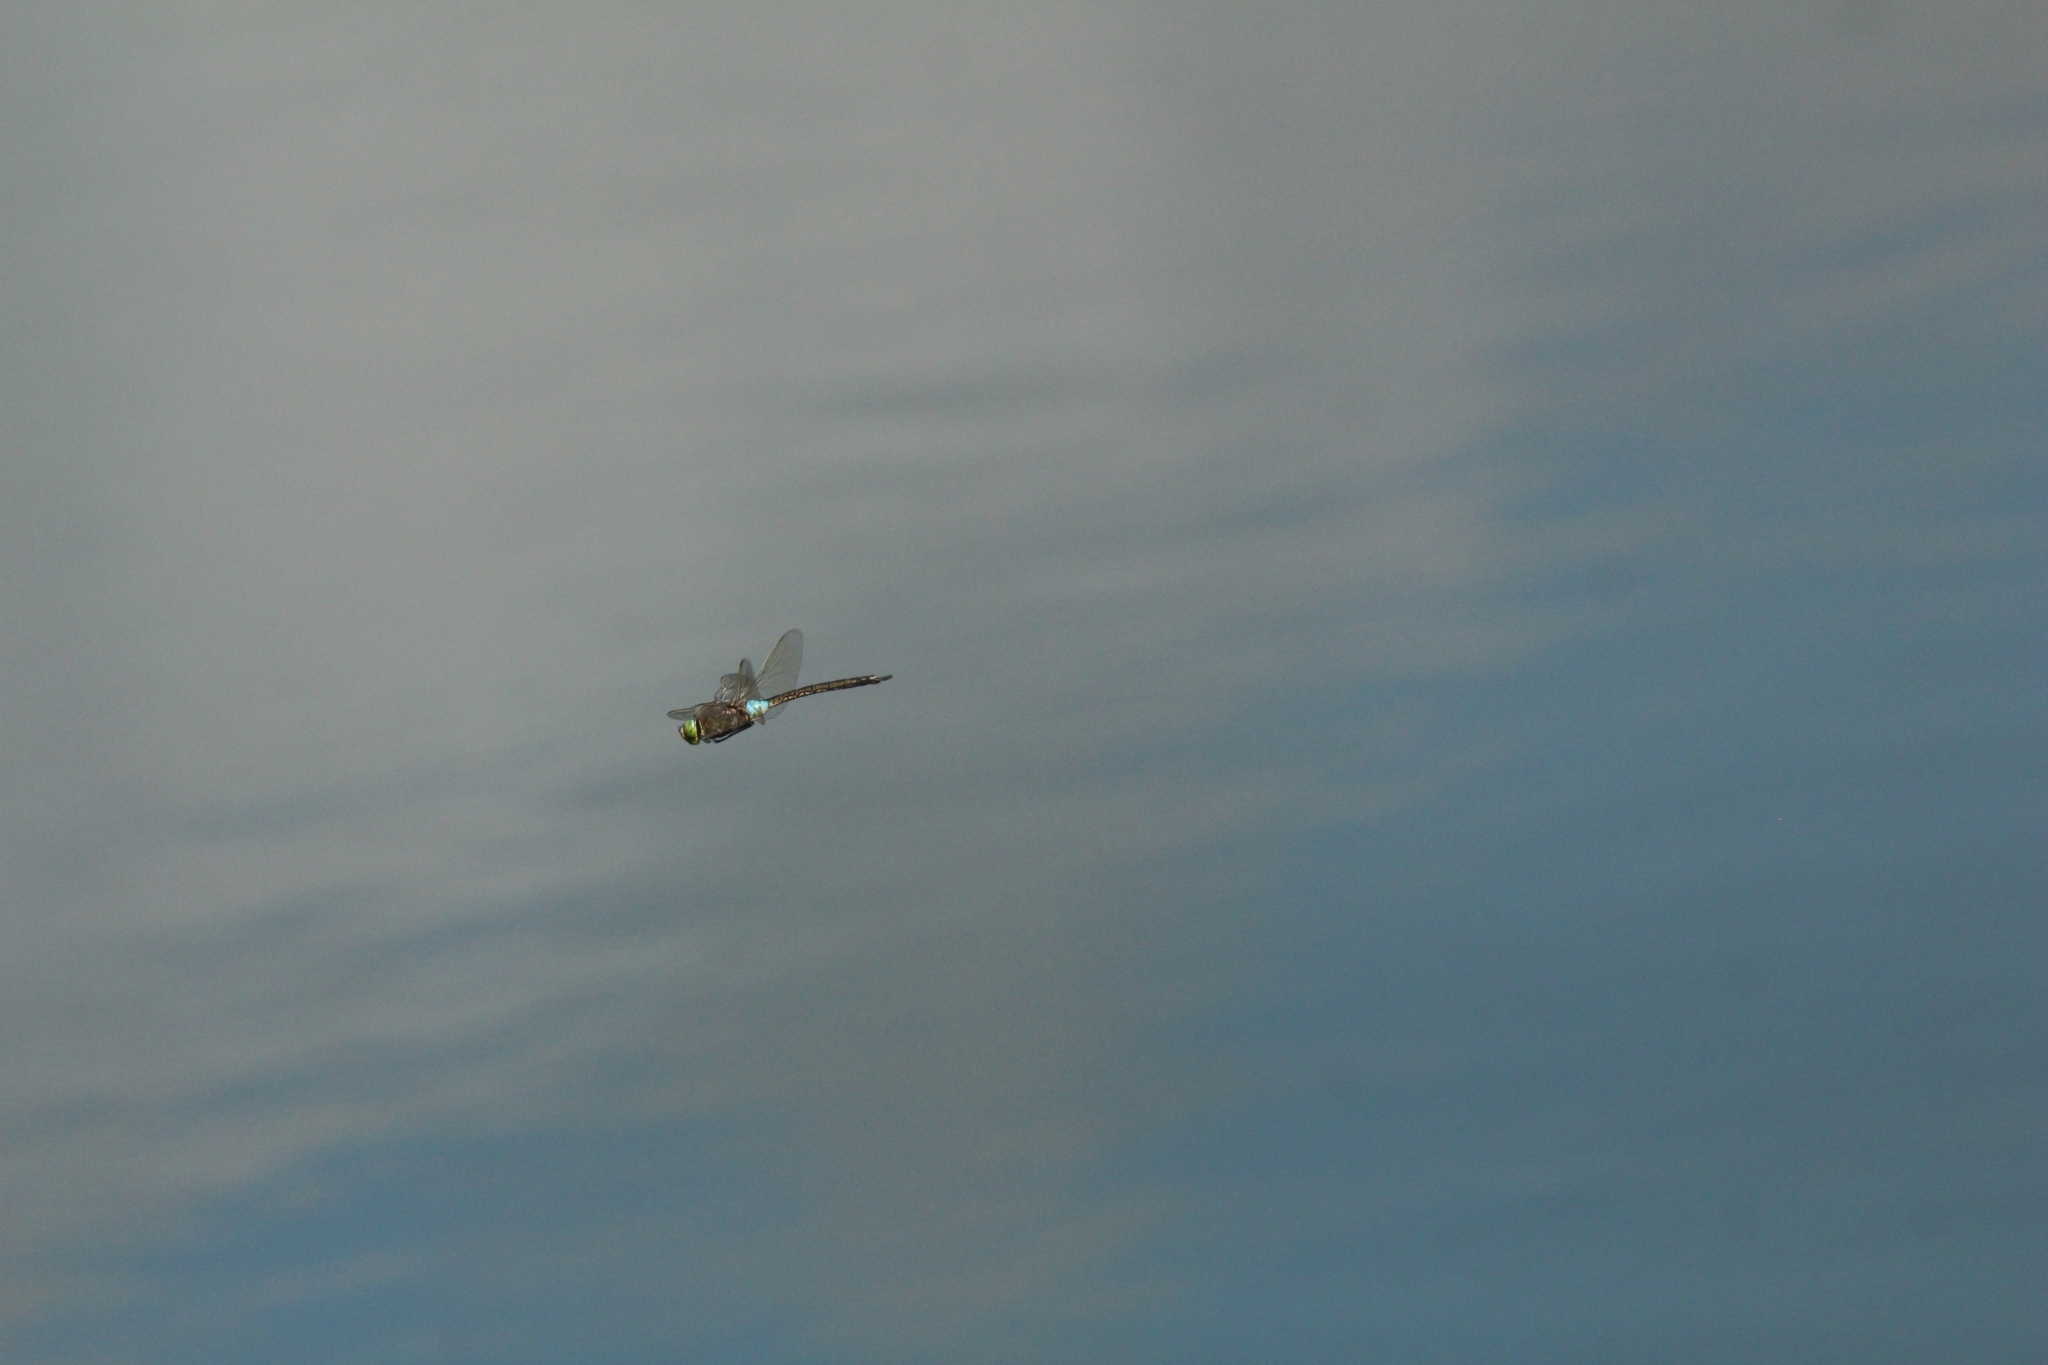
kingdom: Animalia
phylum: Arthropoda
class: Insecta
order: Odonata
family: Aeshnidae
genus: Anax
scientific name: Anax parthenope
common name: Lesser emperor
